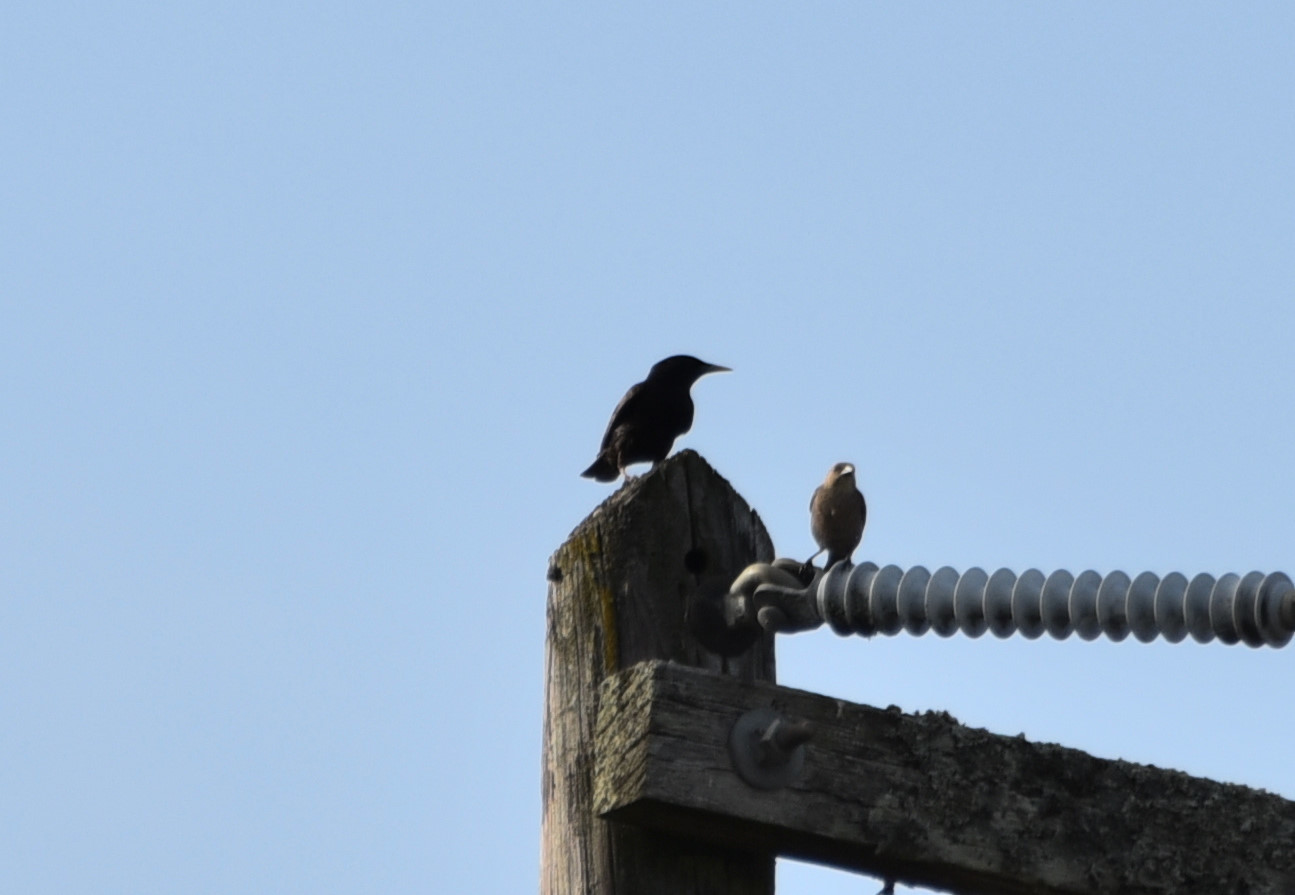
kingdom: Animalia
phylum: Chordata
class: Aves
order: Passeriformes
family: Sturnidae
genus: Sturnus
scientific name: Sturnus vulgaris
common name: Common starling
